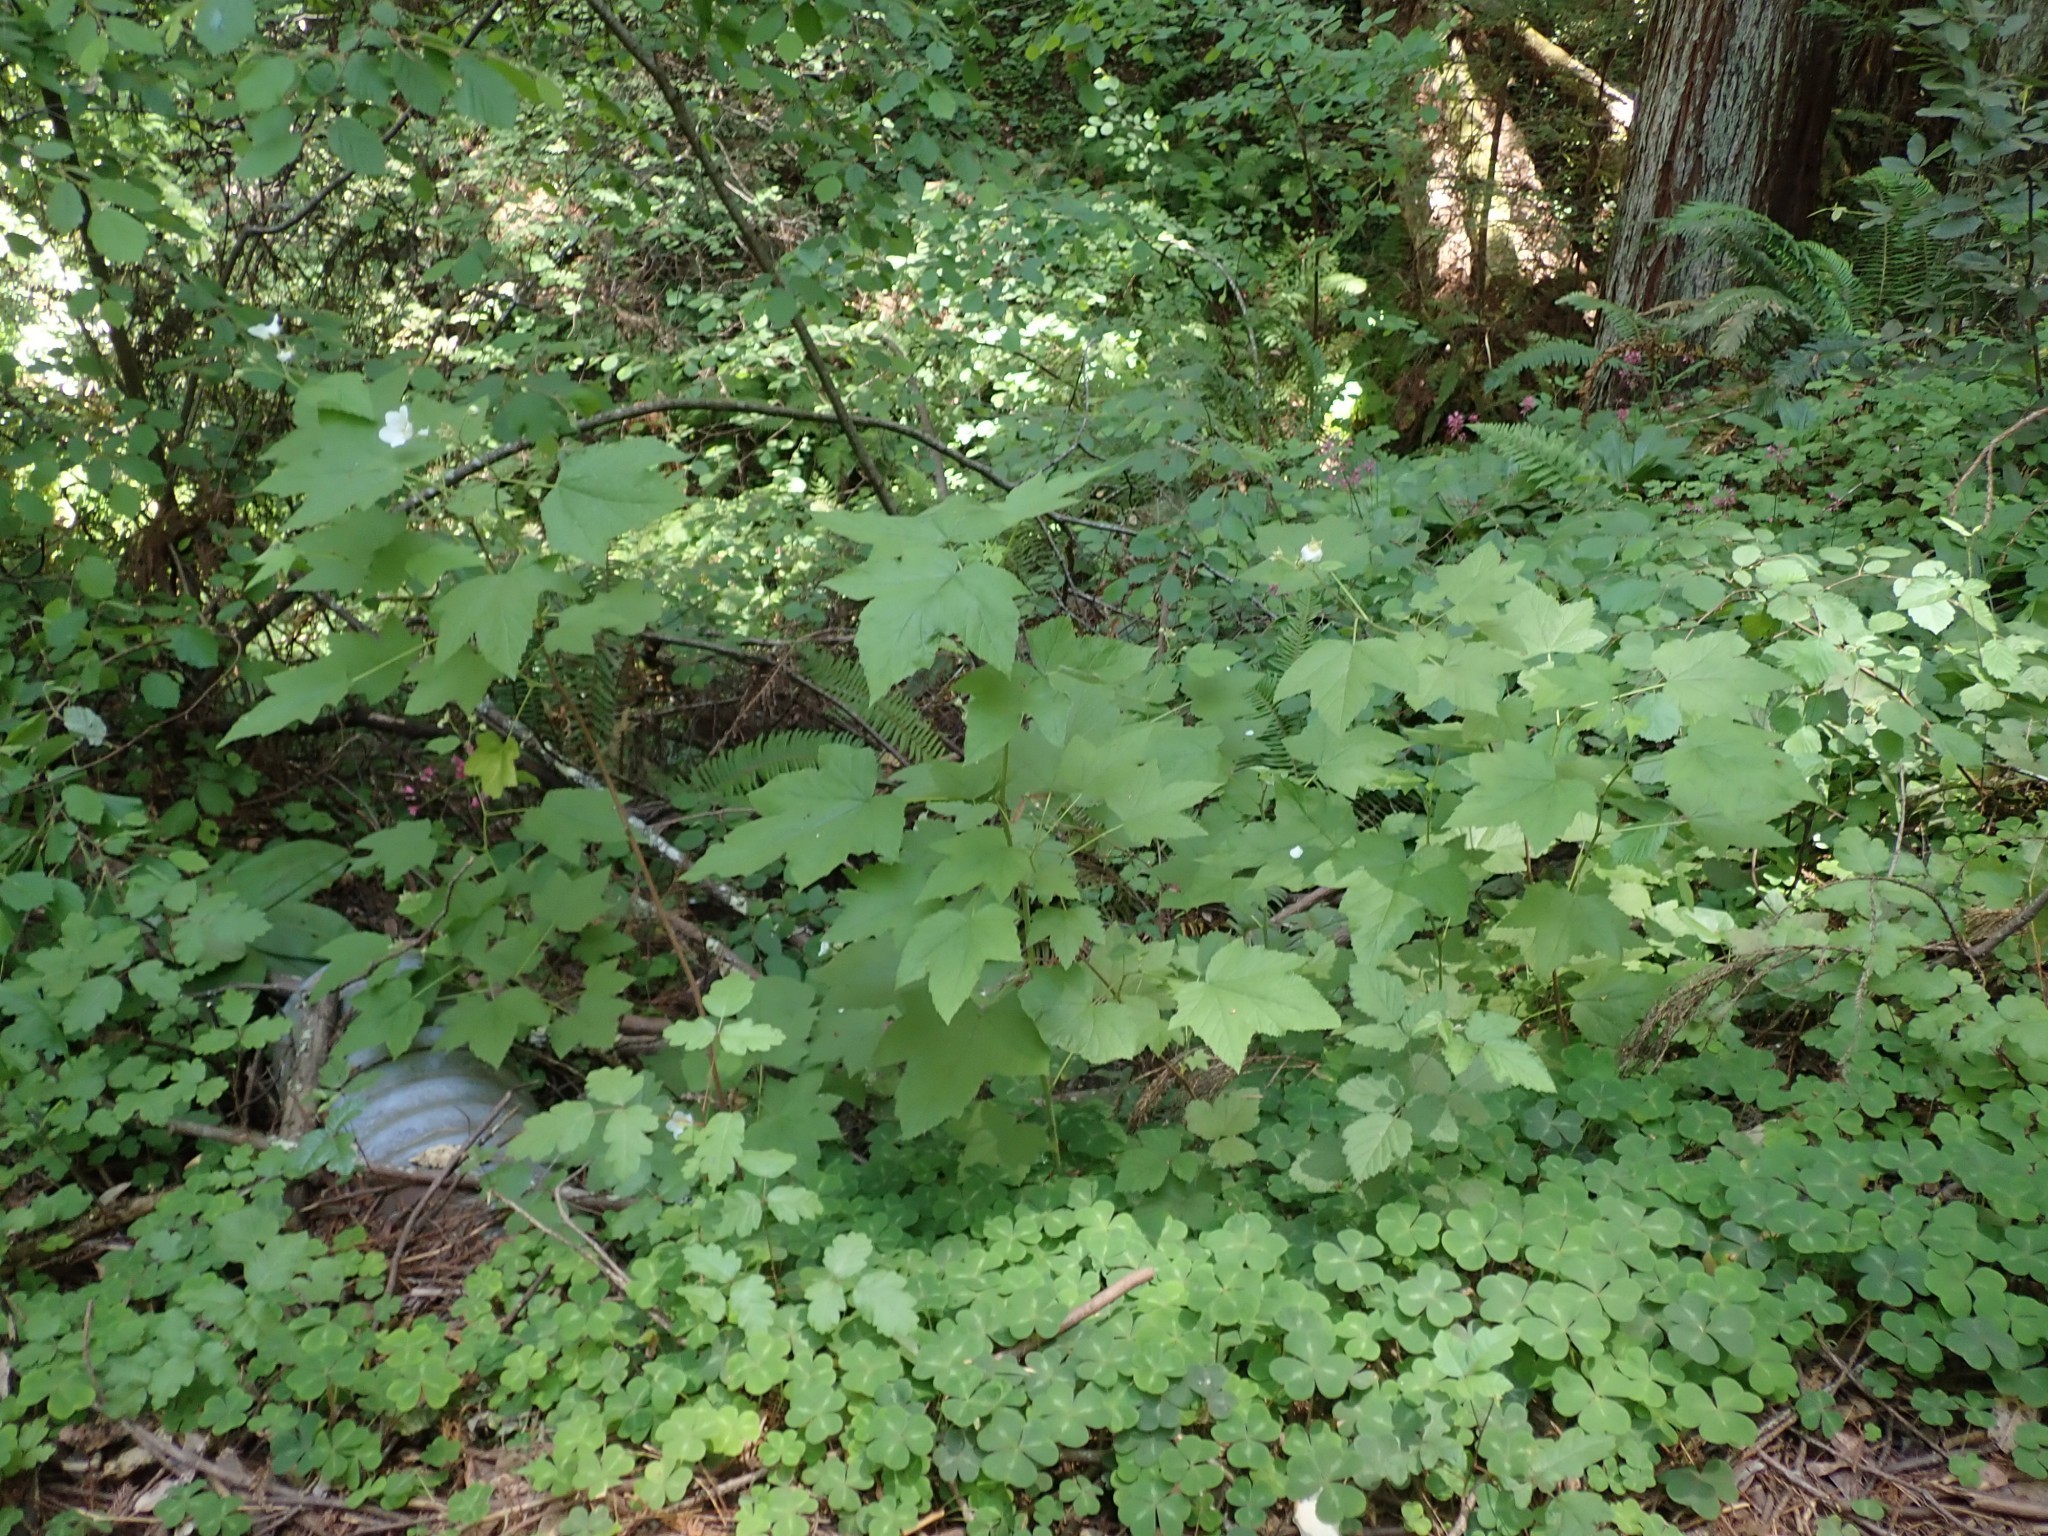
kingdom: Plantae
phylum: Tracheophyta
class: Magnoliopsida
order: Rosales
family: Rosaceae
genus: Rubus
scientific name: Rubus parviflorus
